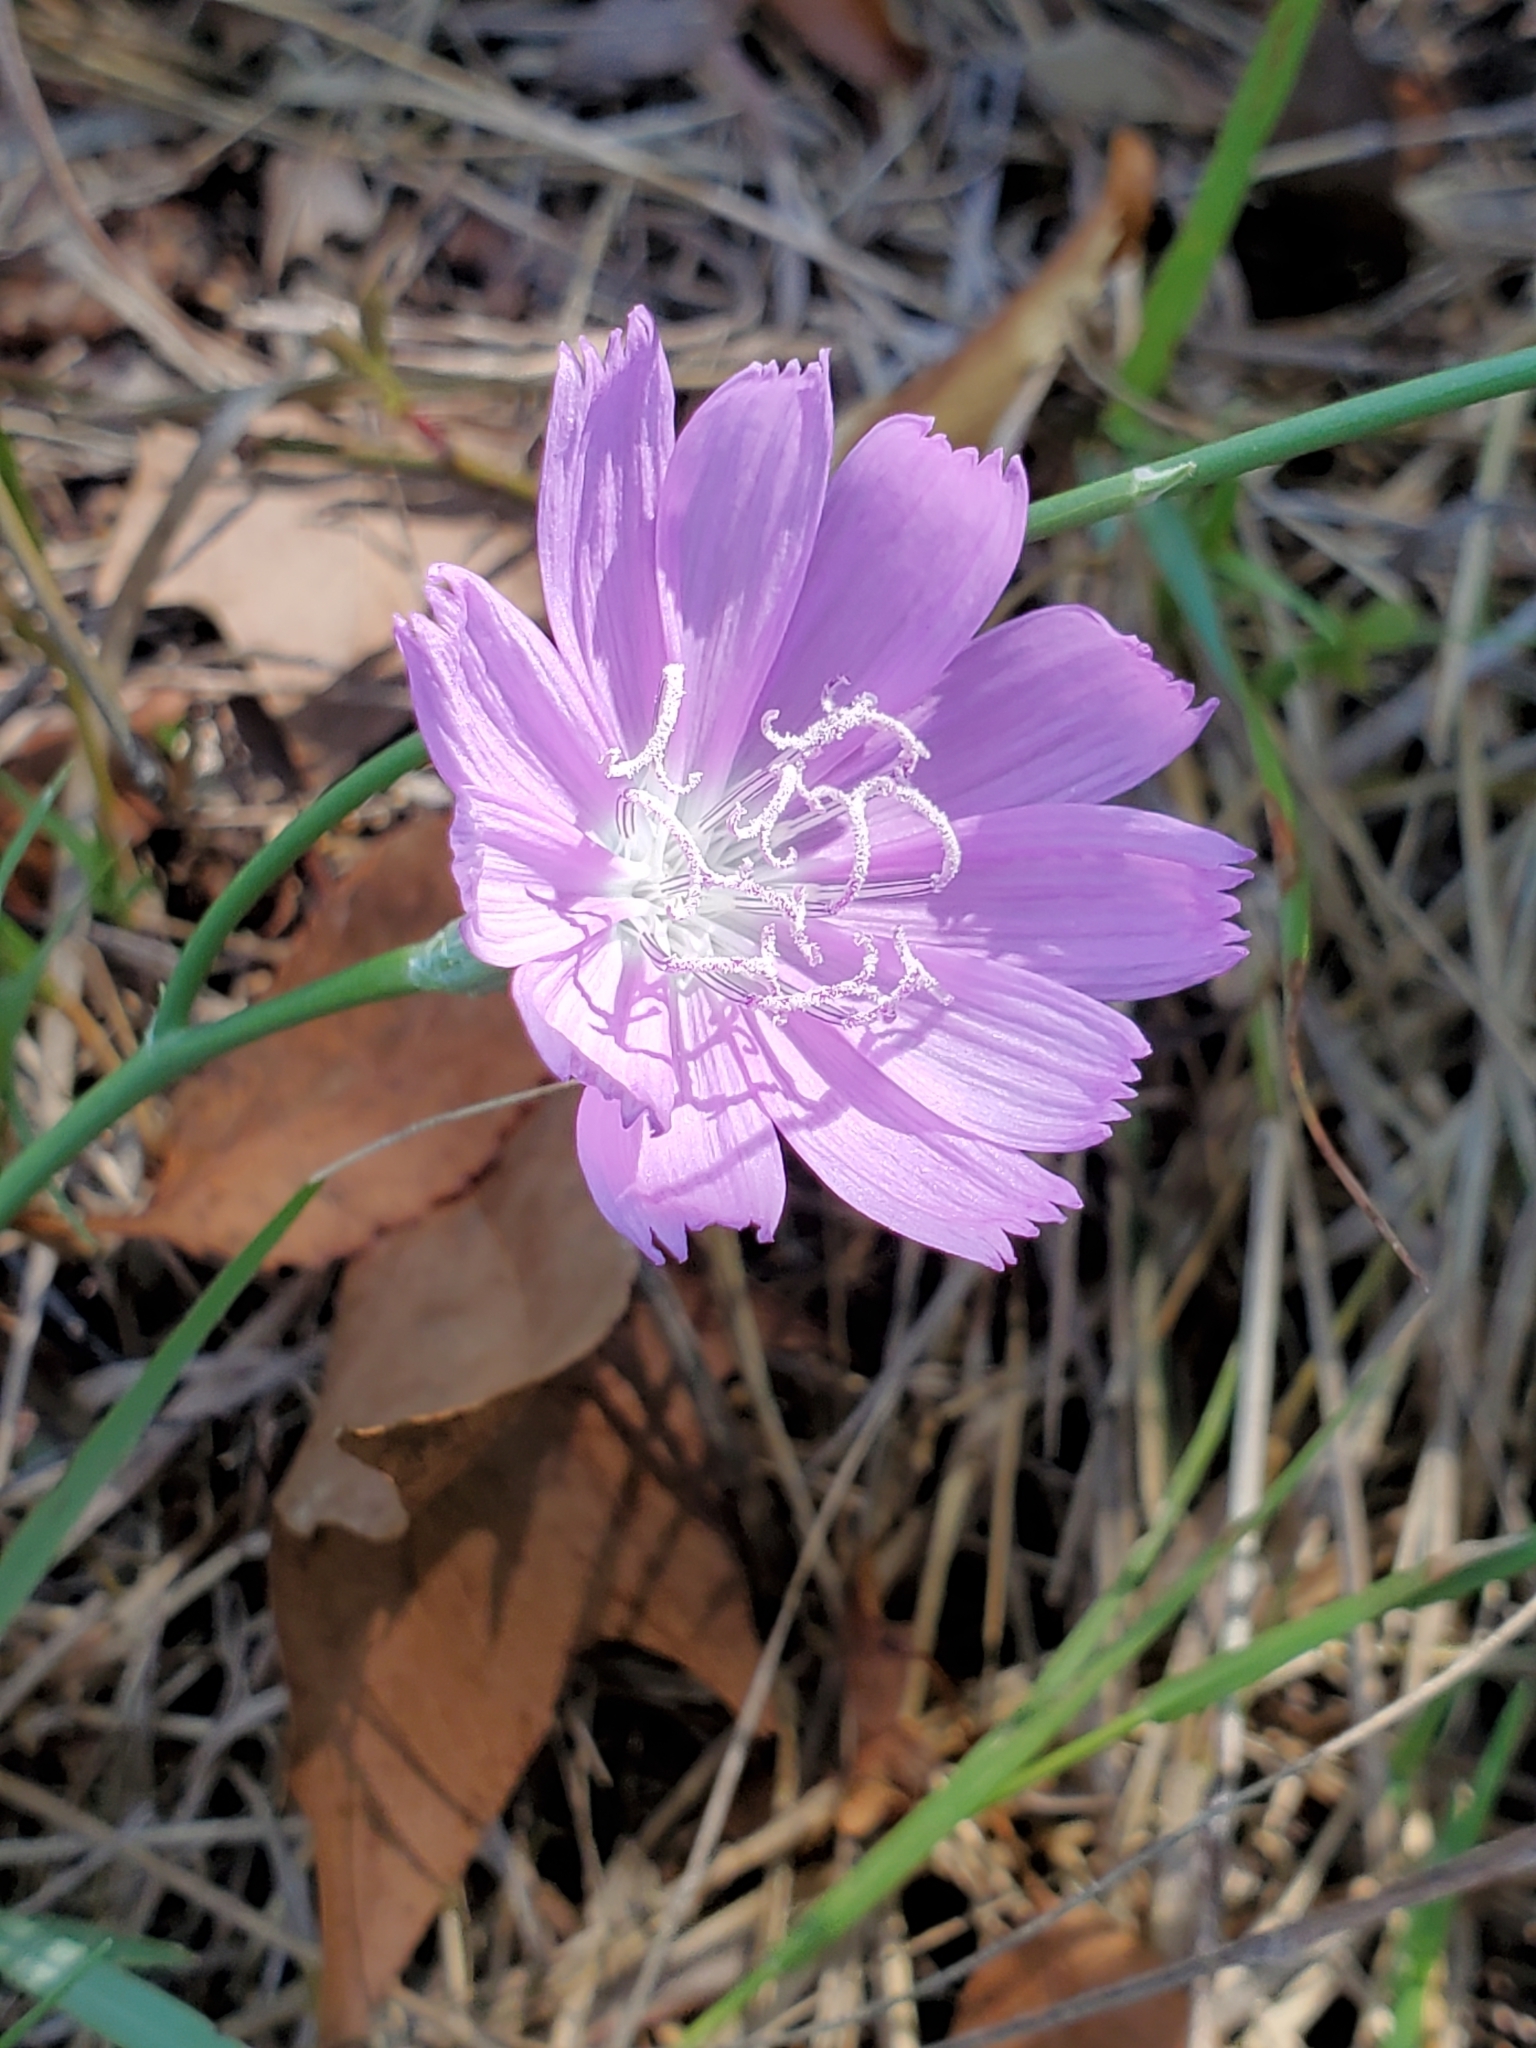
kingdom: Plantae
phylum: Tracheophyta
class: Magnoliopsida
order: Asterales
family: Asteraceae
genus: Lygodesmia
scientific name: Lygodesmia texana
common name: Texas skeleton-plant
